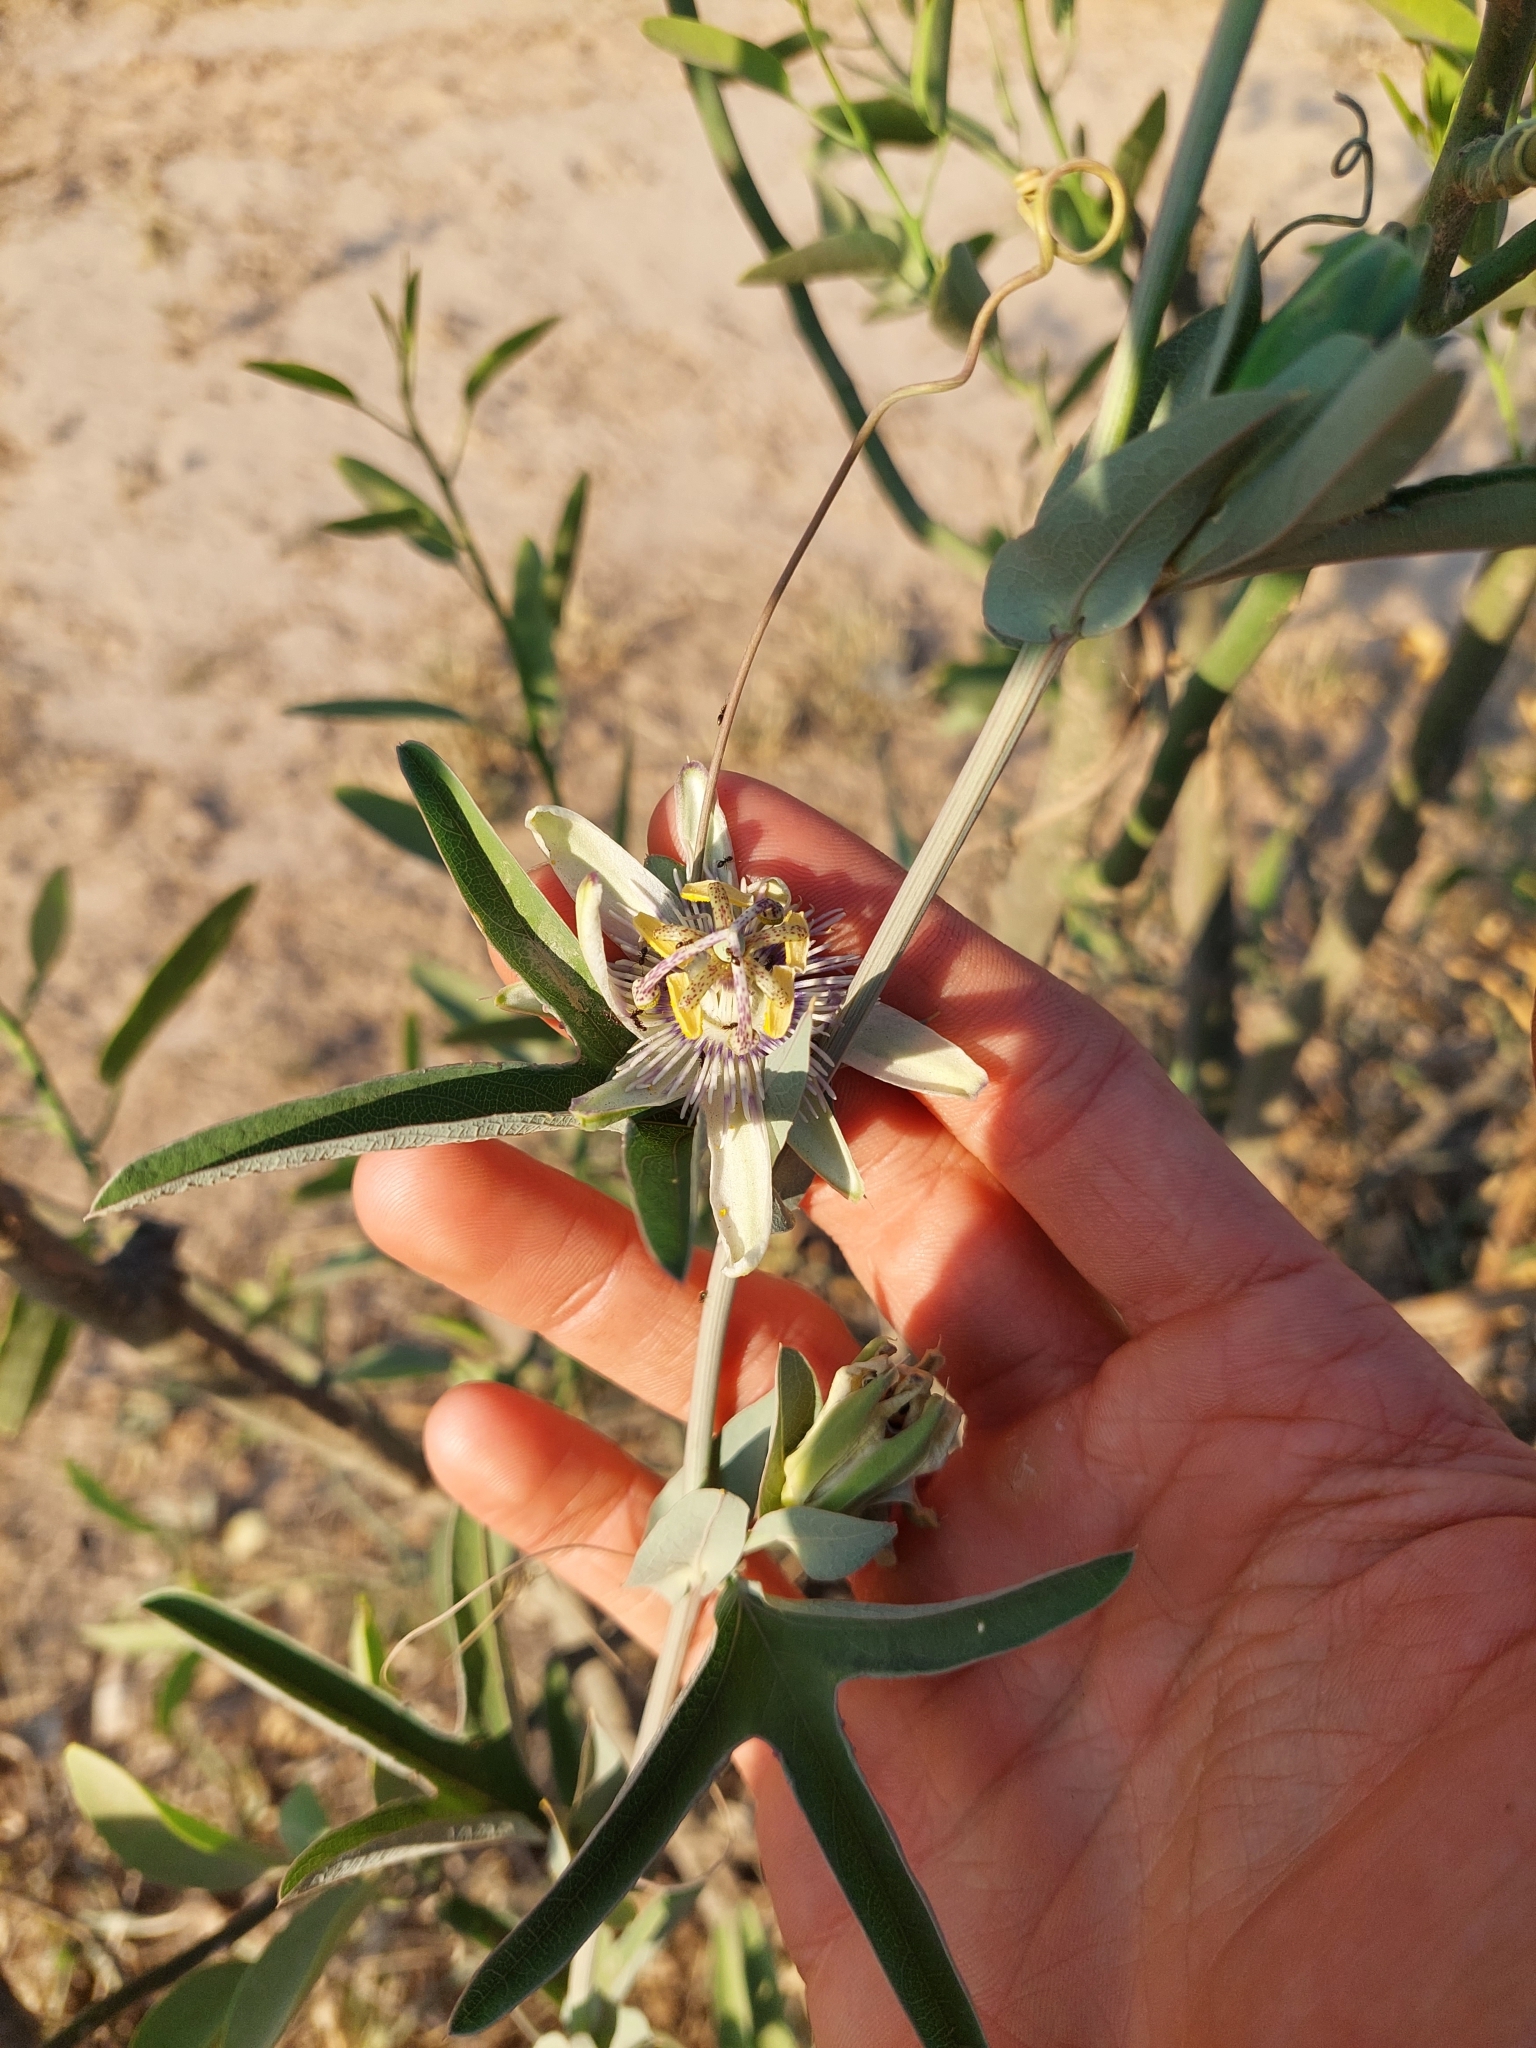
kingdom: Plantae
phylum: Tracheophyta
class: Magnoliopsida
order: Malpighiales
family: Passifloraceae
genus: Passiflora
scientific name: Passiflora mooreana
